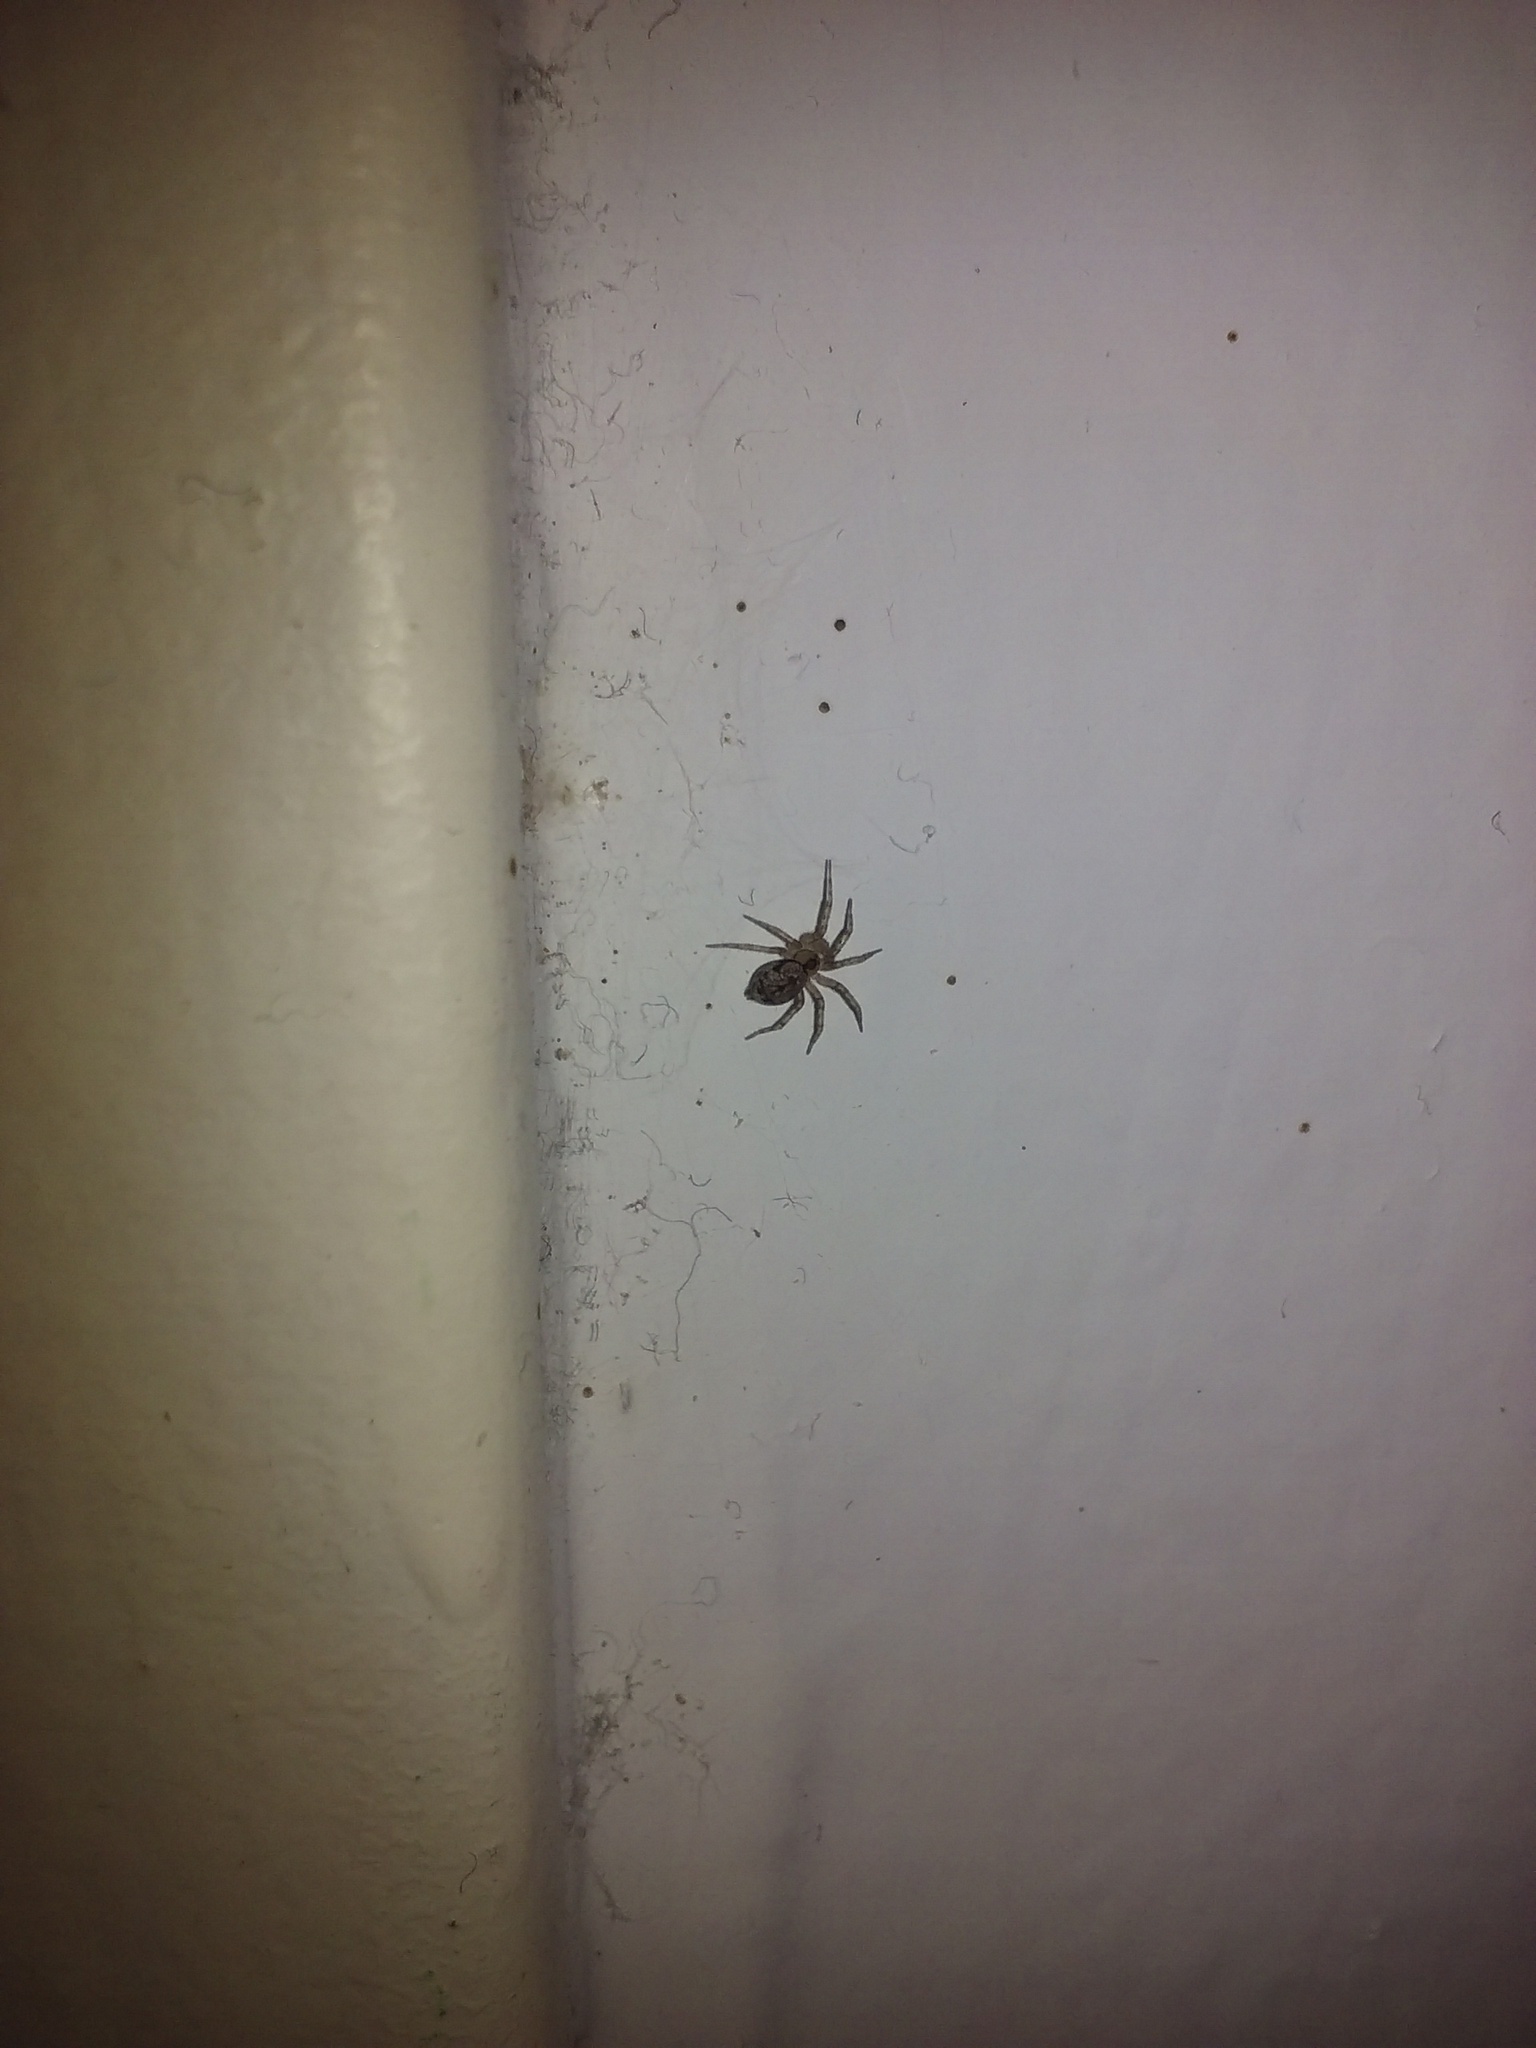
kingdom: Animalia
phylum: Arthropoda
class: Arachnida
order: Araneae
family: Oecobiidae
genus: Oecobius
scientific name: Oecobius navus
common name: Flatmesh weaver
